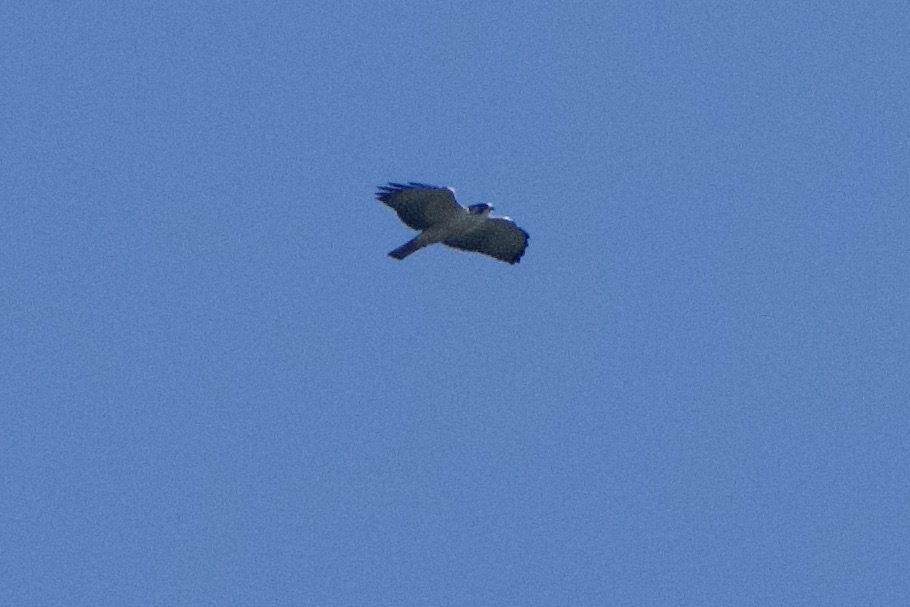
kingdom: Animalia
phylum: Chordata
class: Aves
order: Accipitriformes
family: Accipitridae
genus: Buteo
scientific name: Buteo brachyurus
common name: Short-tailed hawk
